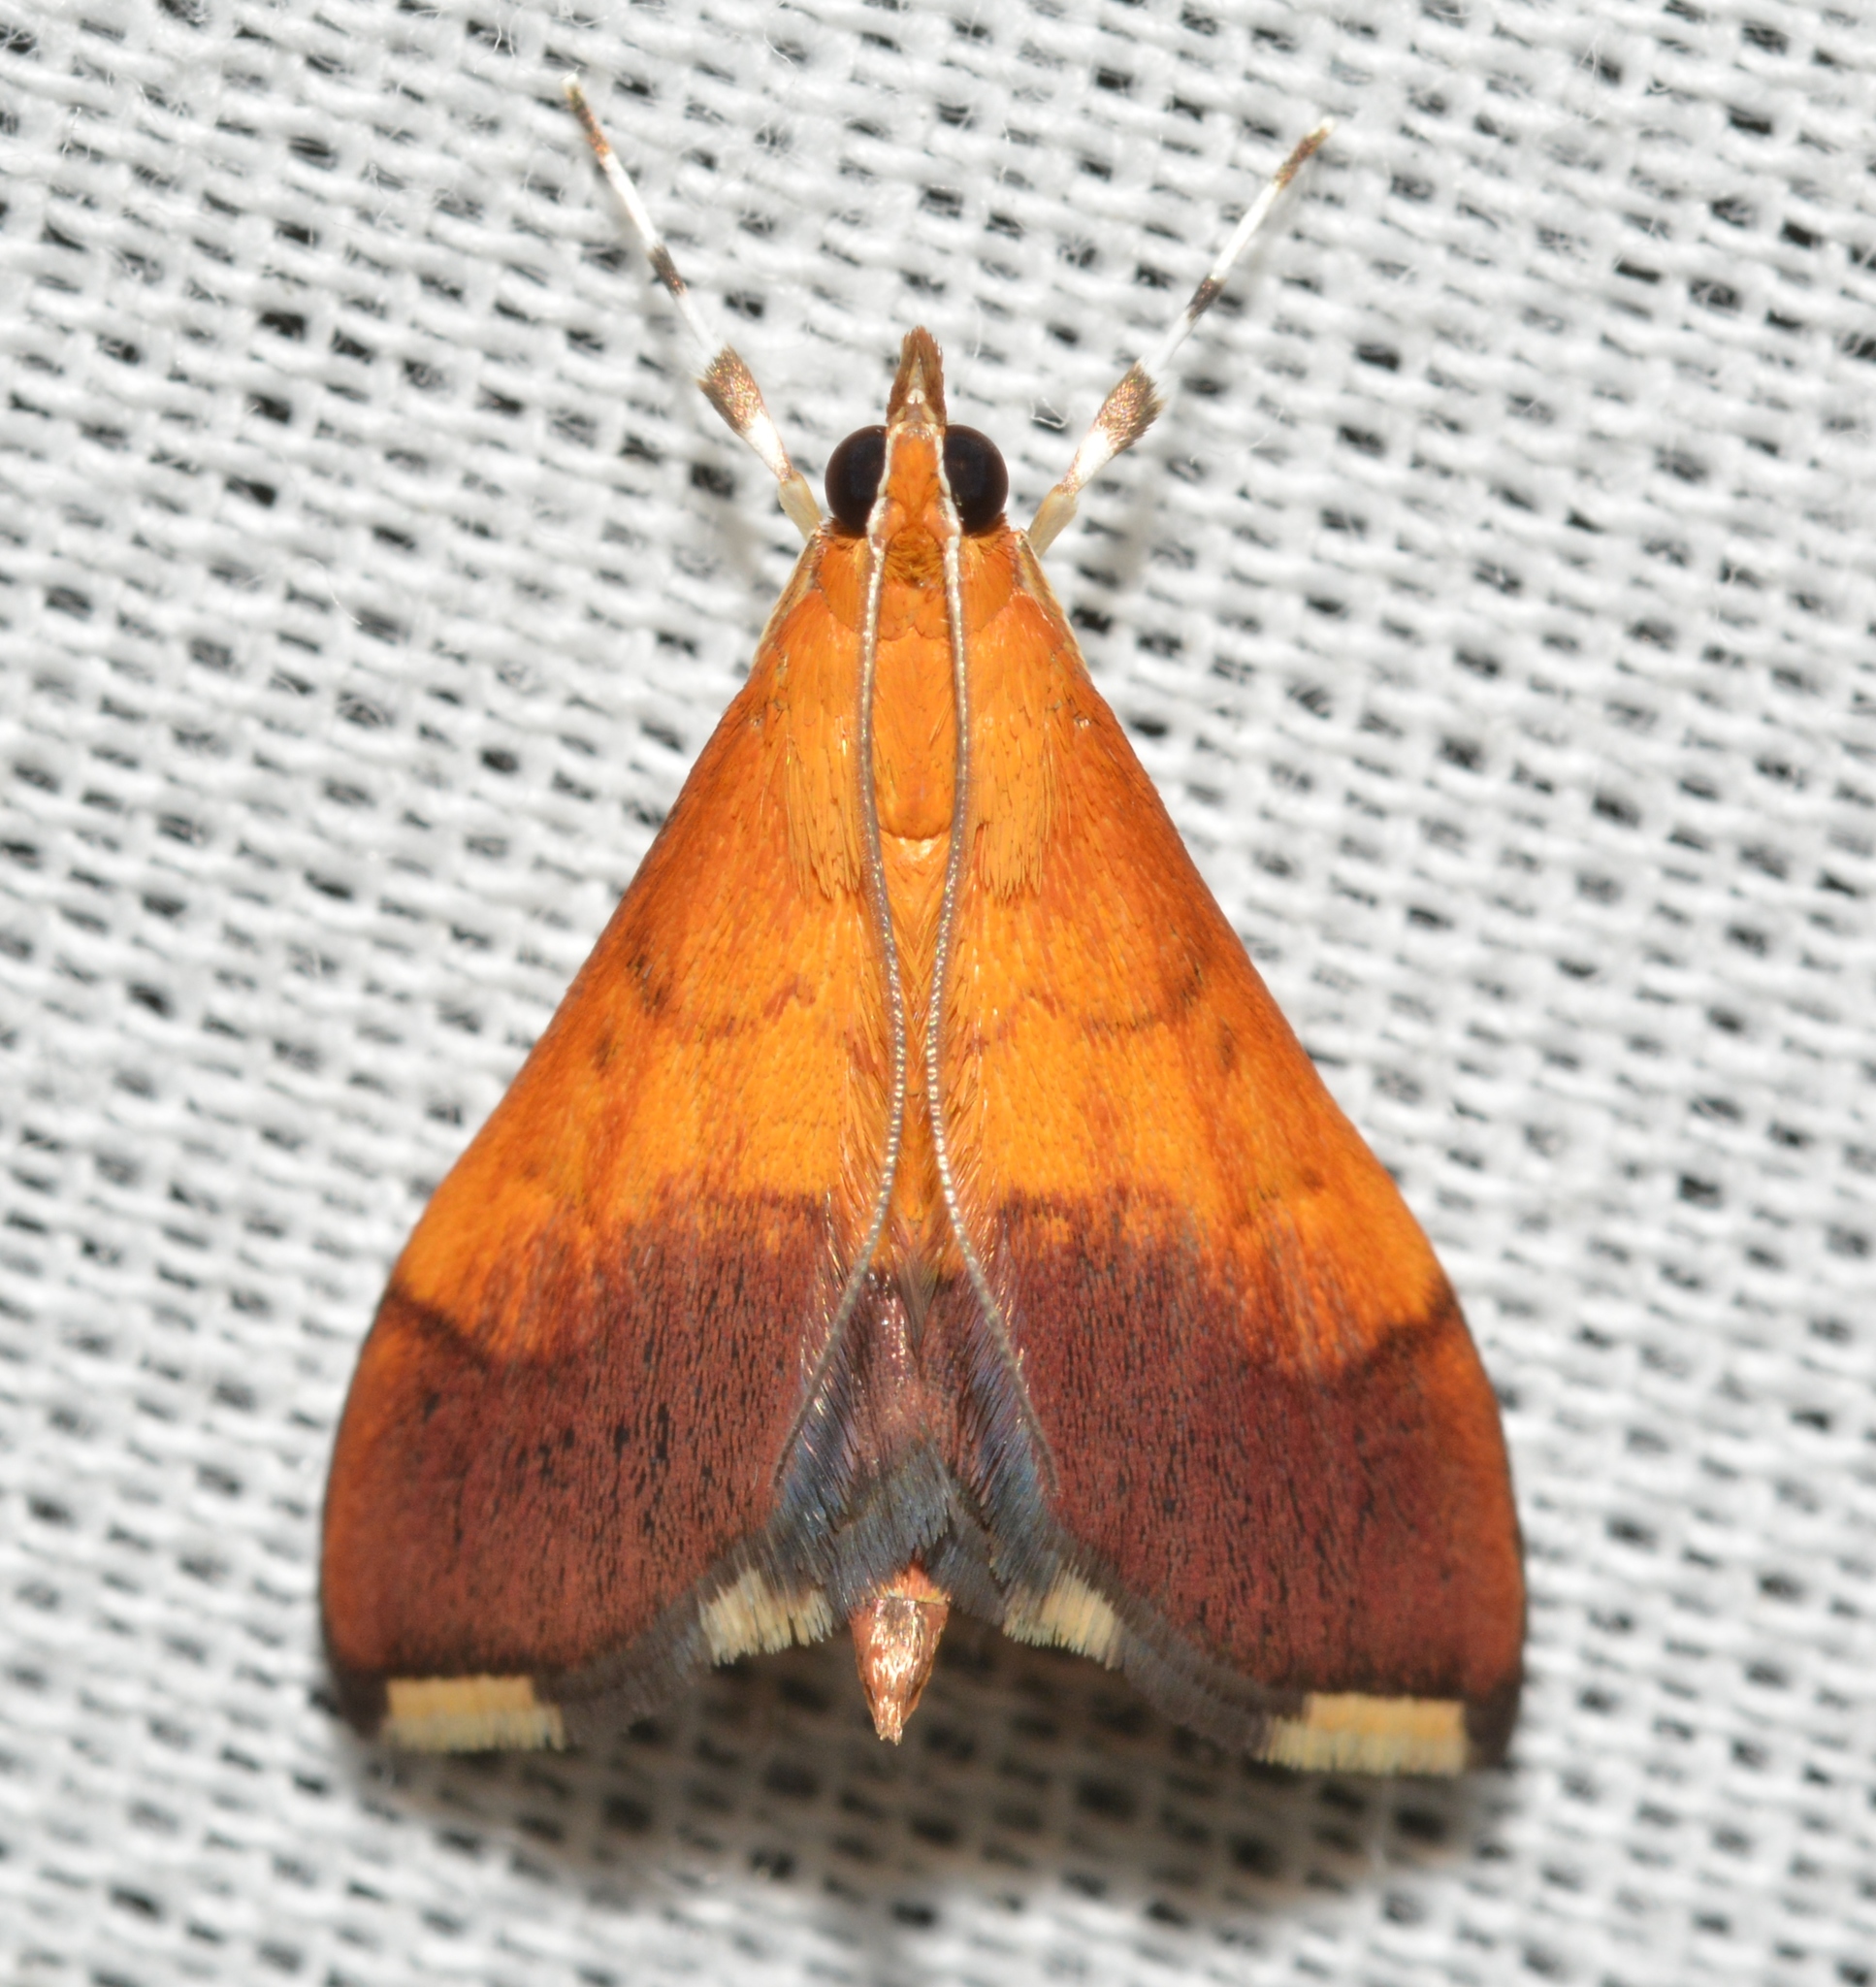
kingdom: Animalia
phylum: Arthropoda
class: Insecta
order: Lepidoptera
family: Crambidae
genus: Pyrausta
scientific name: Pyrausta bicoloralis
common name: Bicolored pyrausta moth
